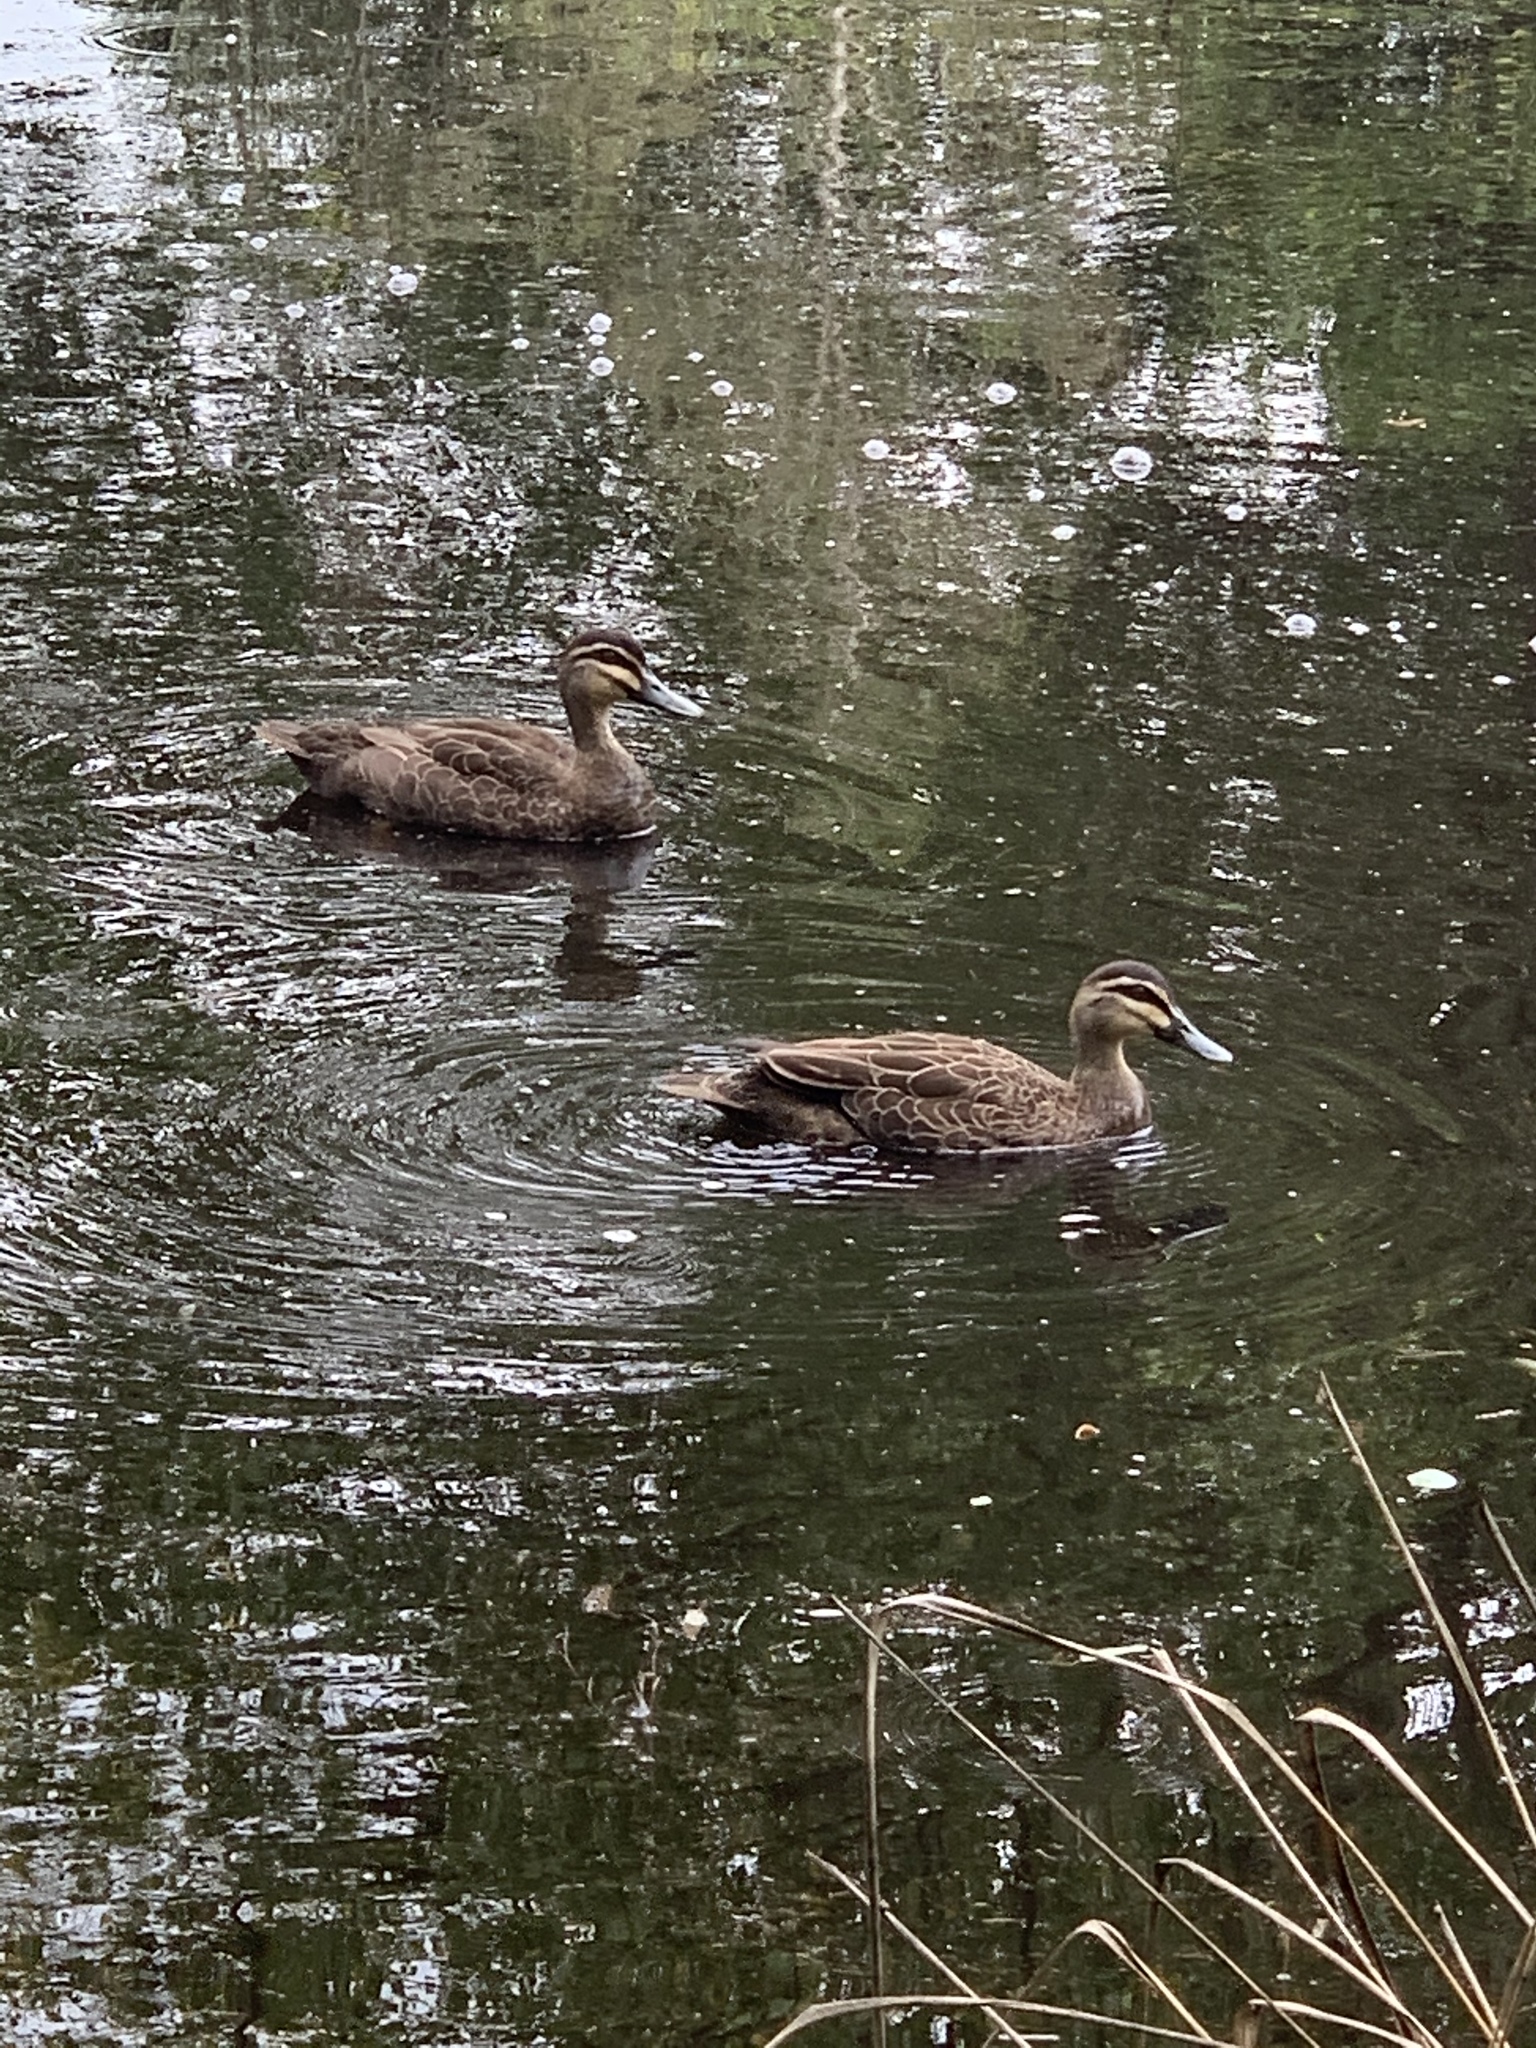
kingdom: Animalia
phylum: Chordata
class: Aves
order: Anseriformes
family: Anatidae
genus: Anas
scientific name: Anas superciliosa
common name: Pacific black duck
